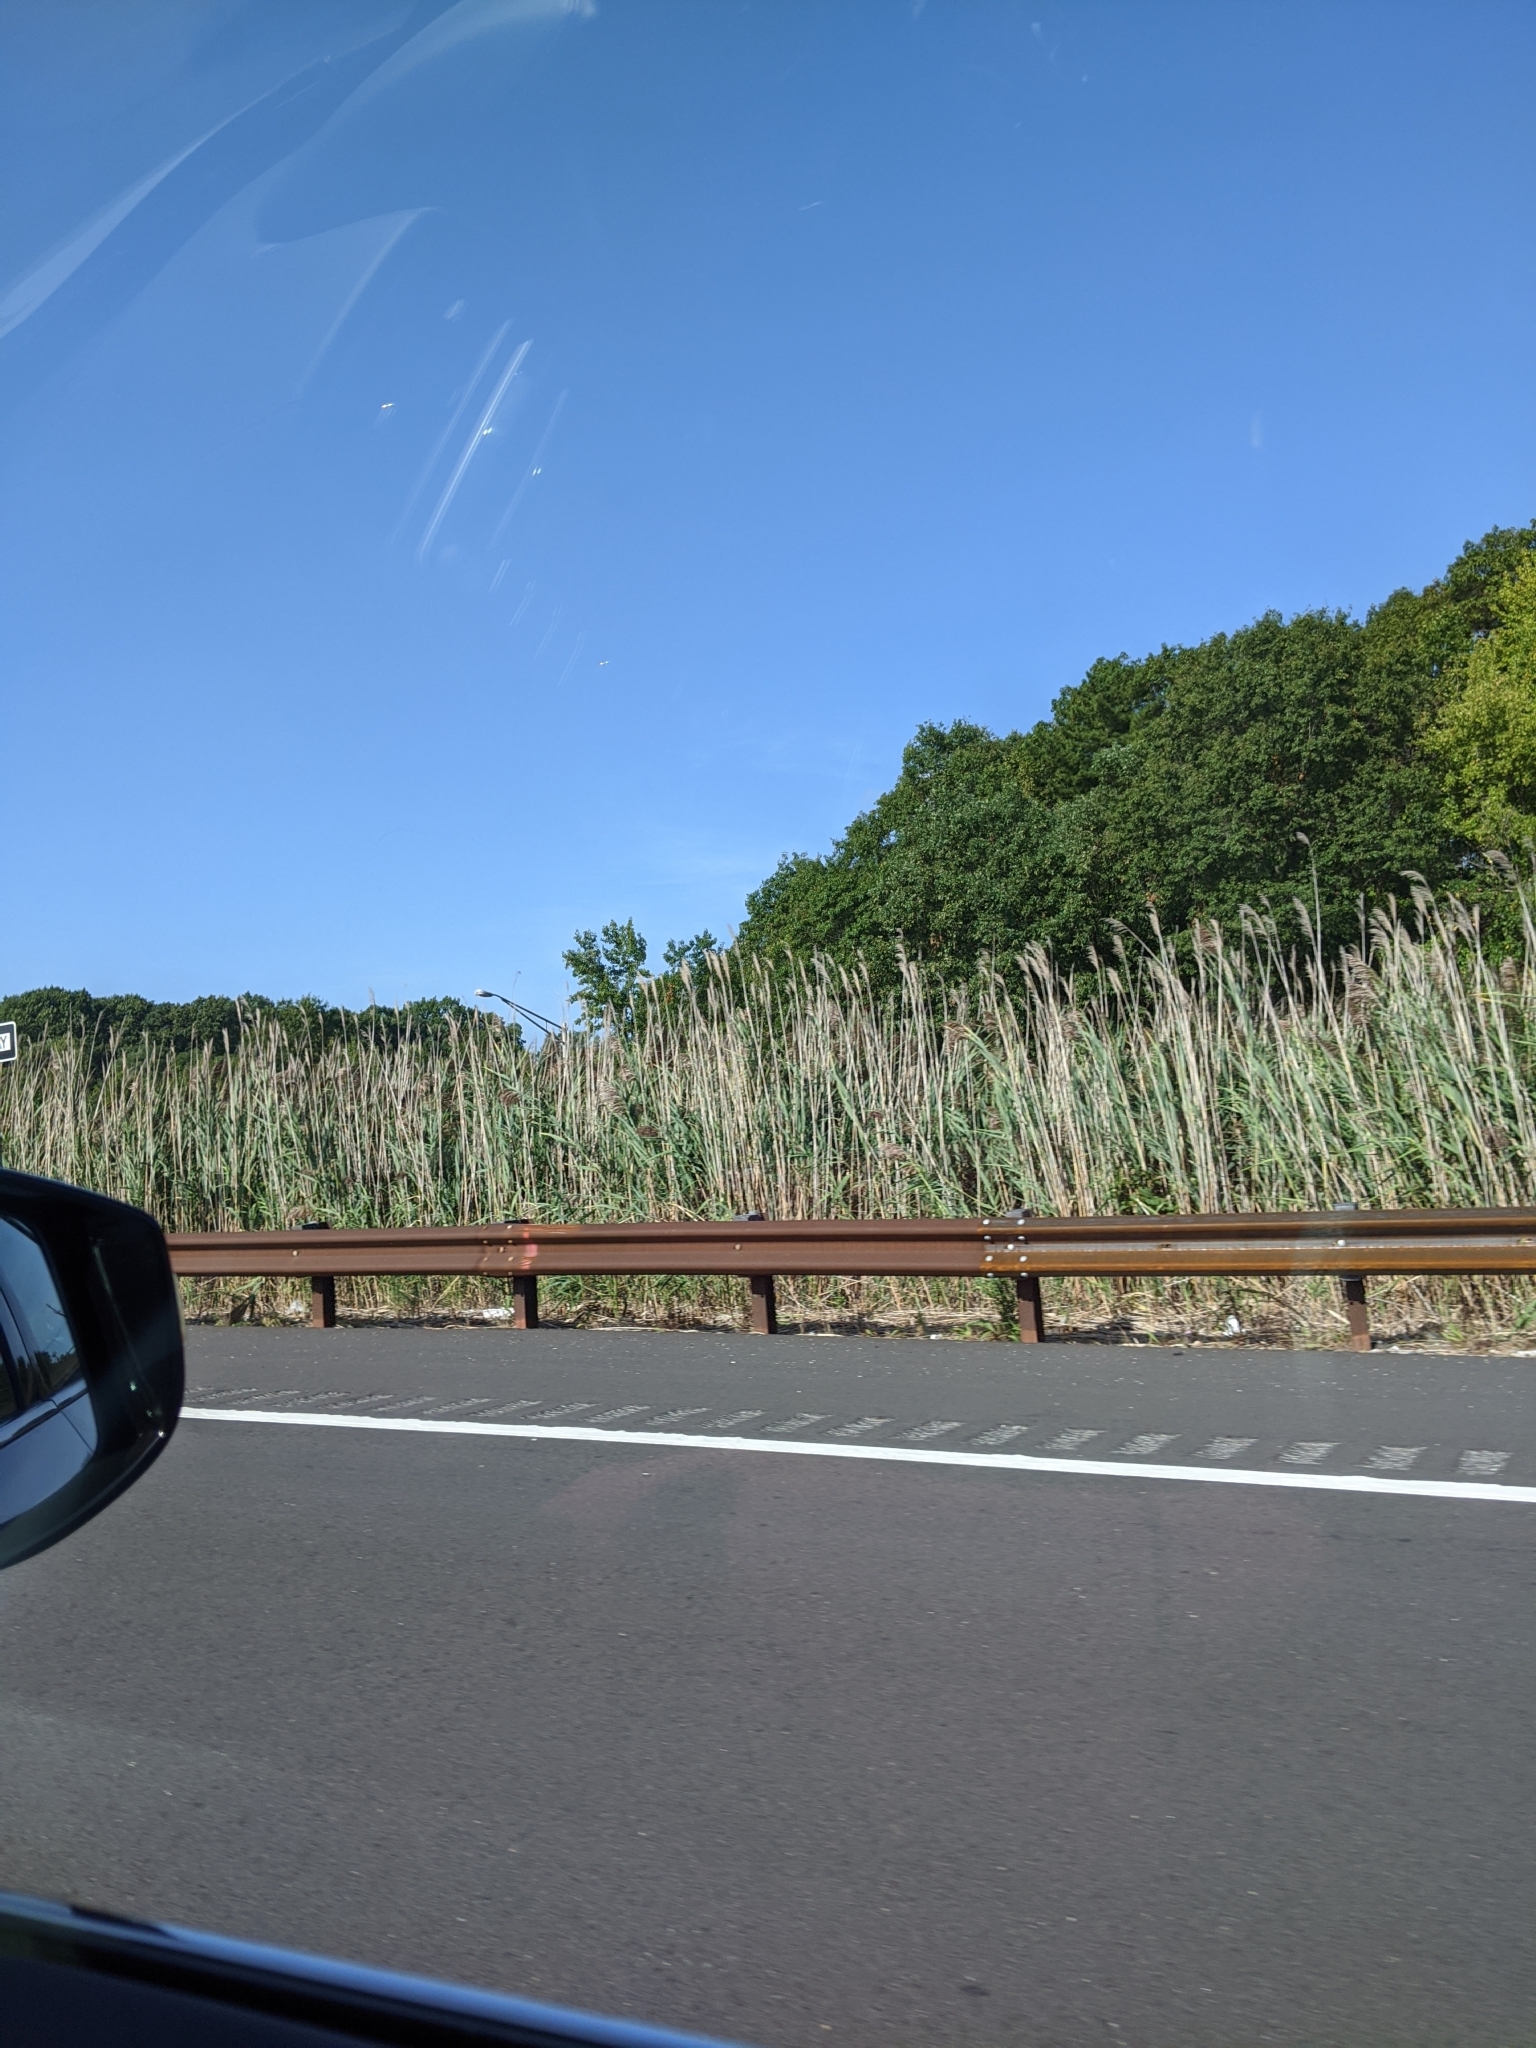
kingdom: Plantae
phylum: Tracheophyta
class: Liliopsida
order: Poales
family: Poaceae
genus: Phragmites
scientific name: Phragmites australis
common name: Common reed
